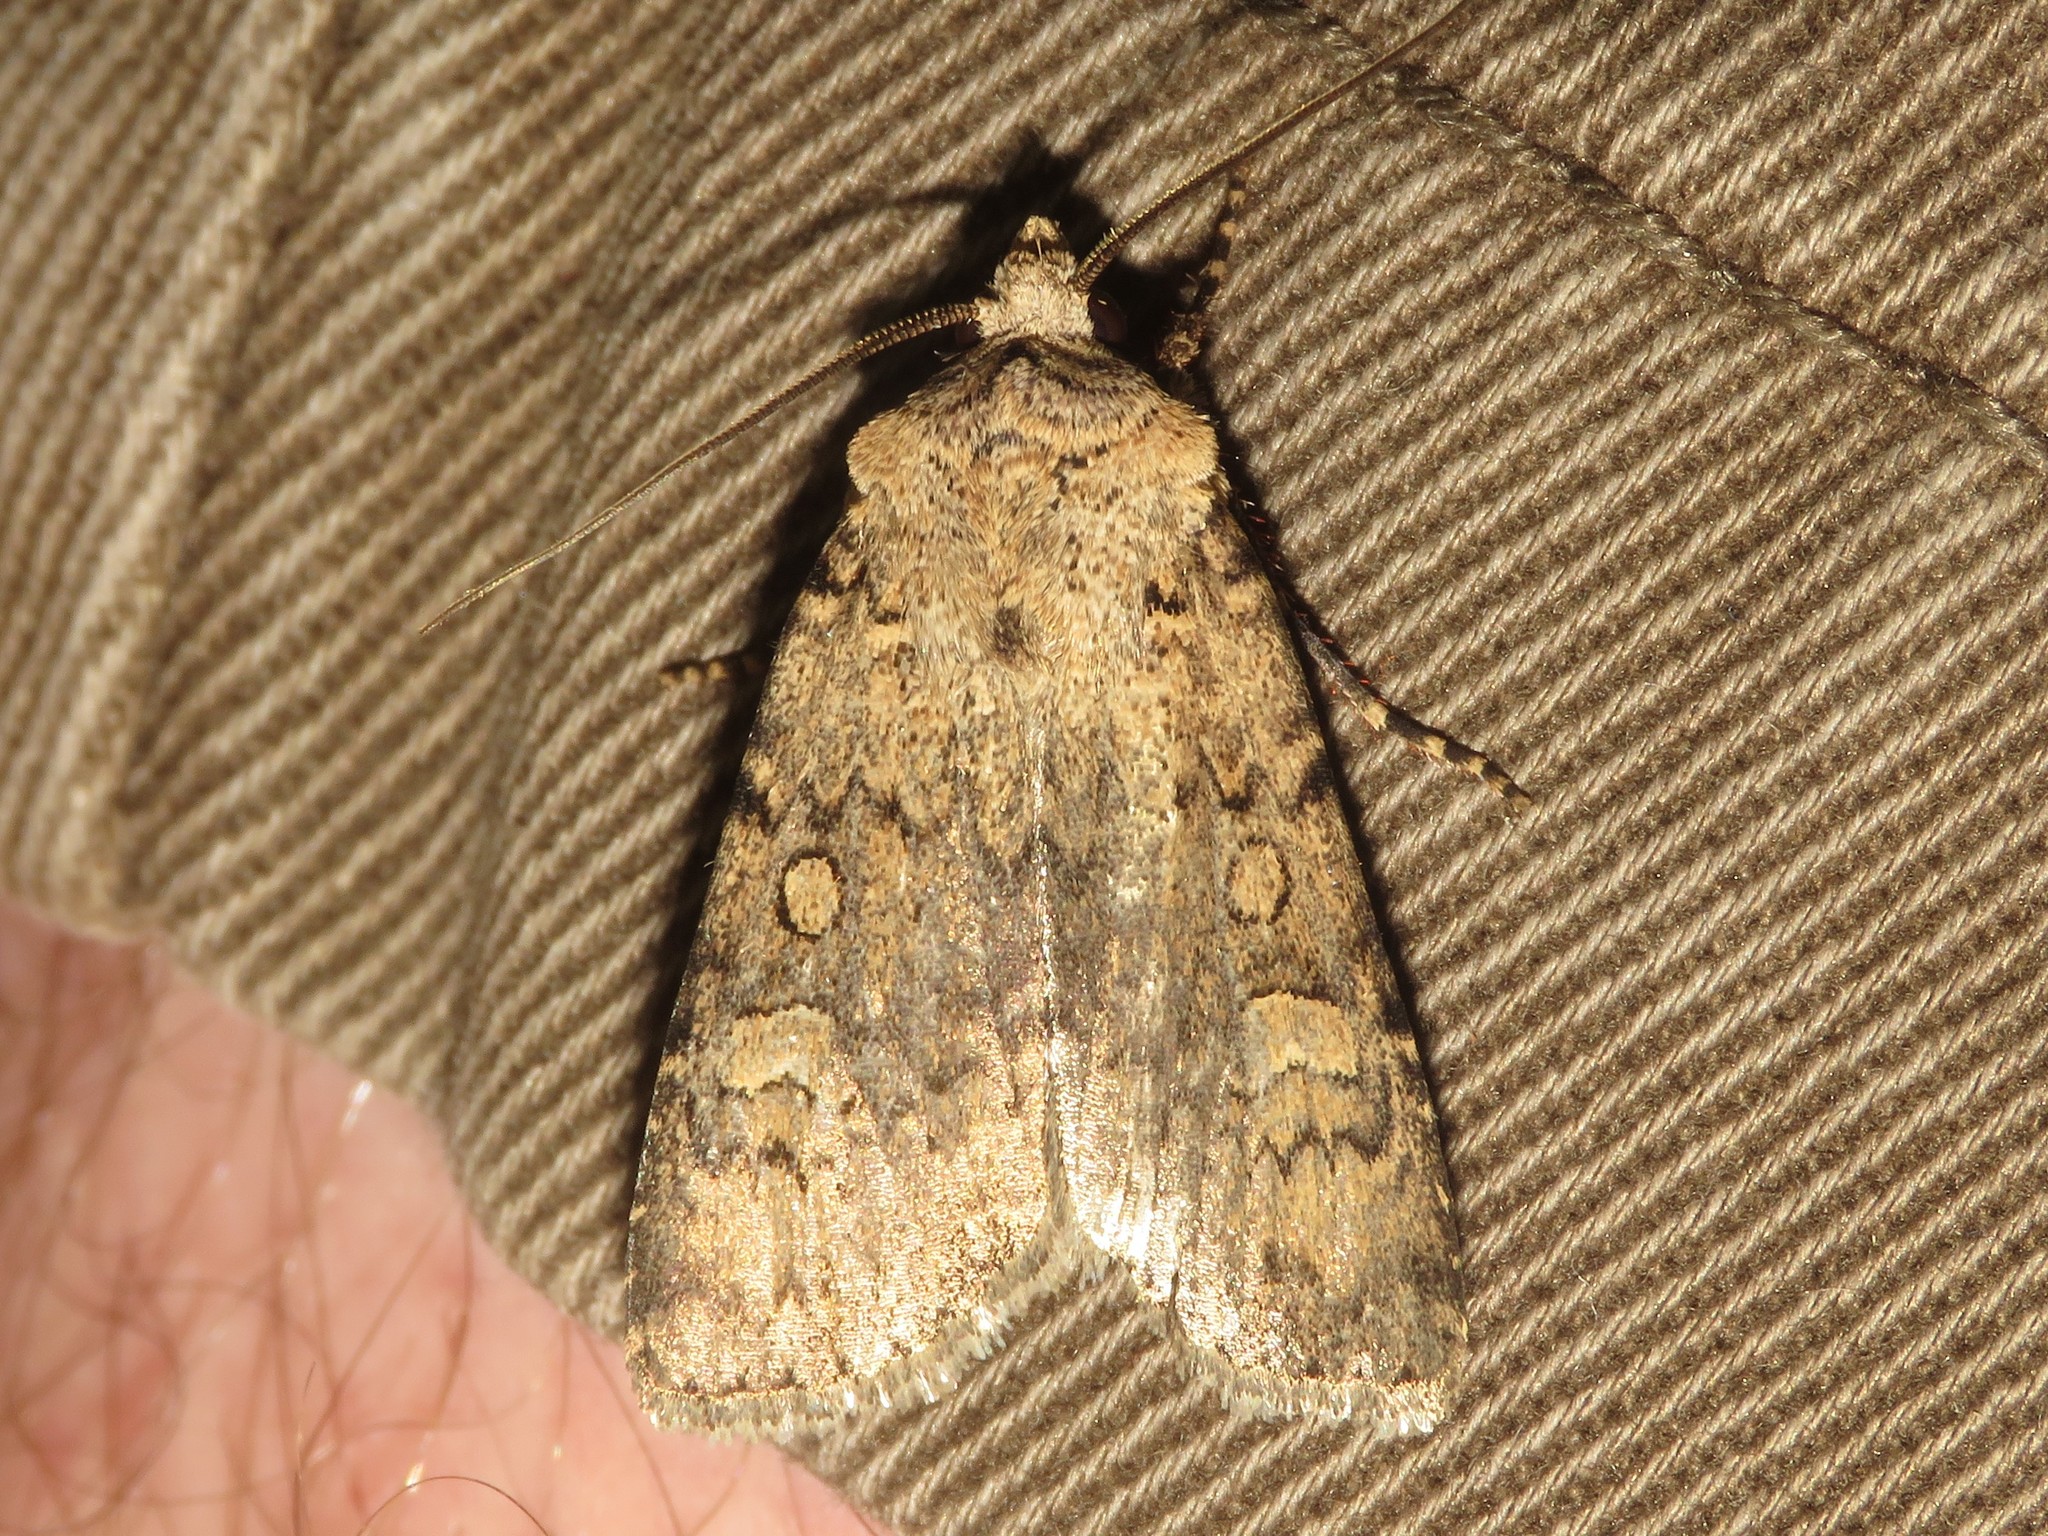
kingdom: Animalia
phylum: Arthropoda
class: Insecta
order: Lepidoptera
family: Noctuidae
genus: Euxoa
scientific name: Euxoa scholastica
